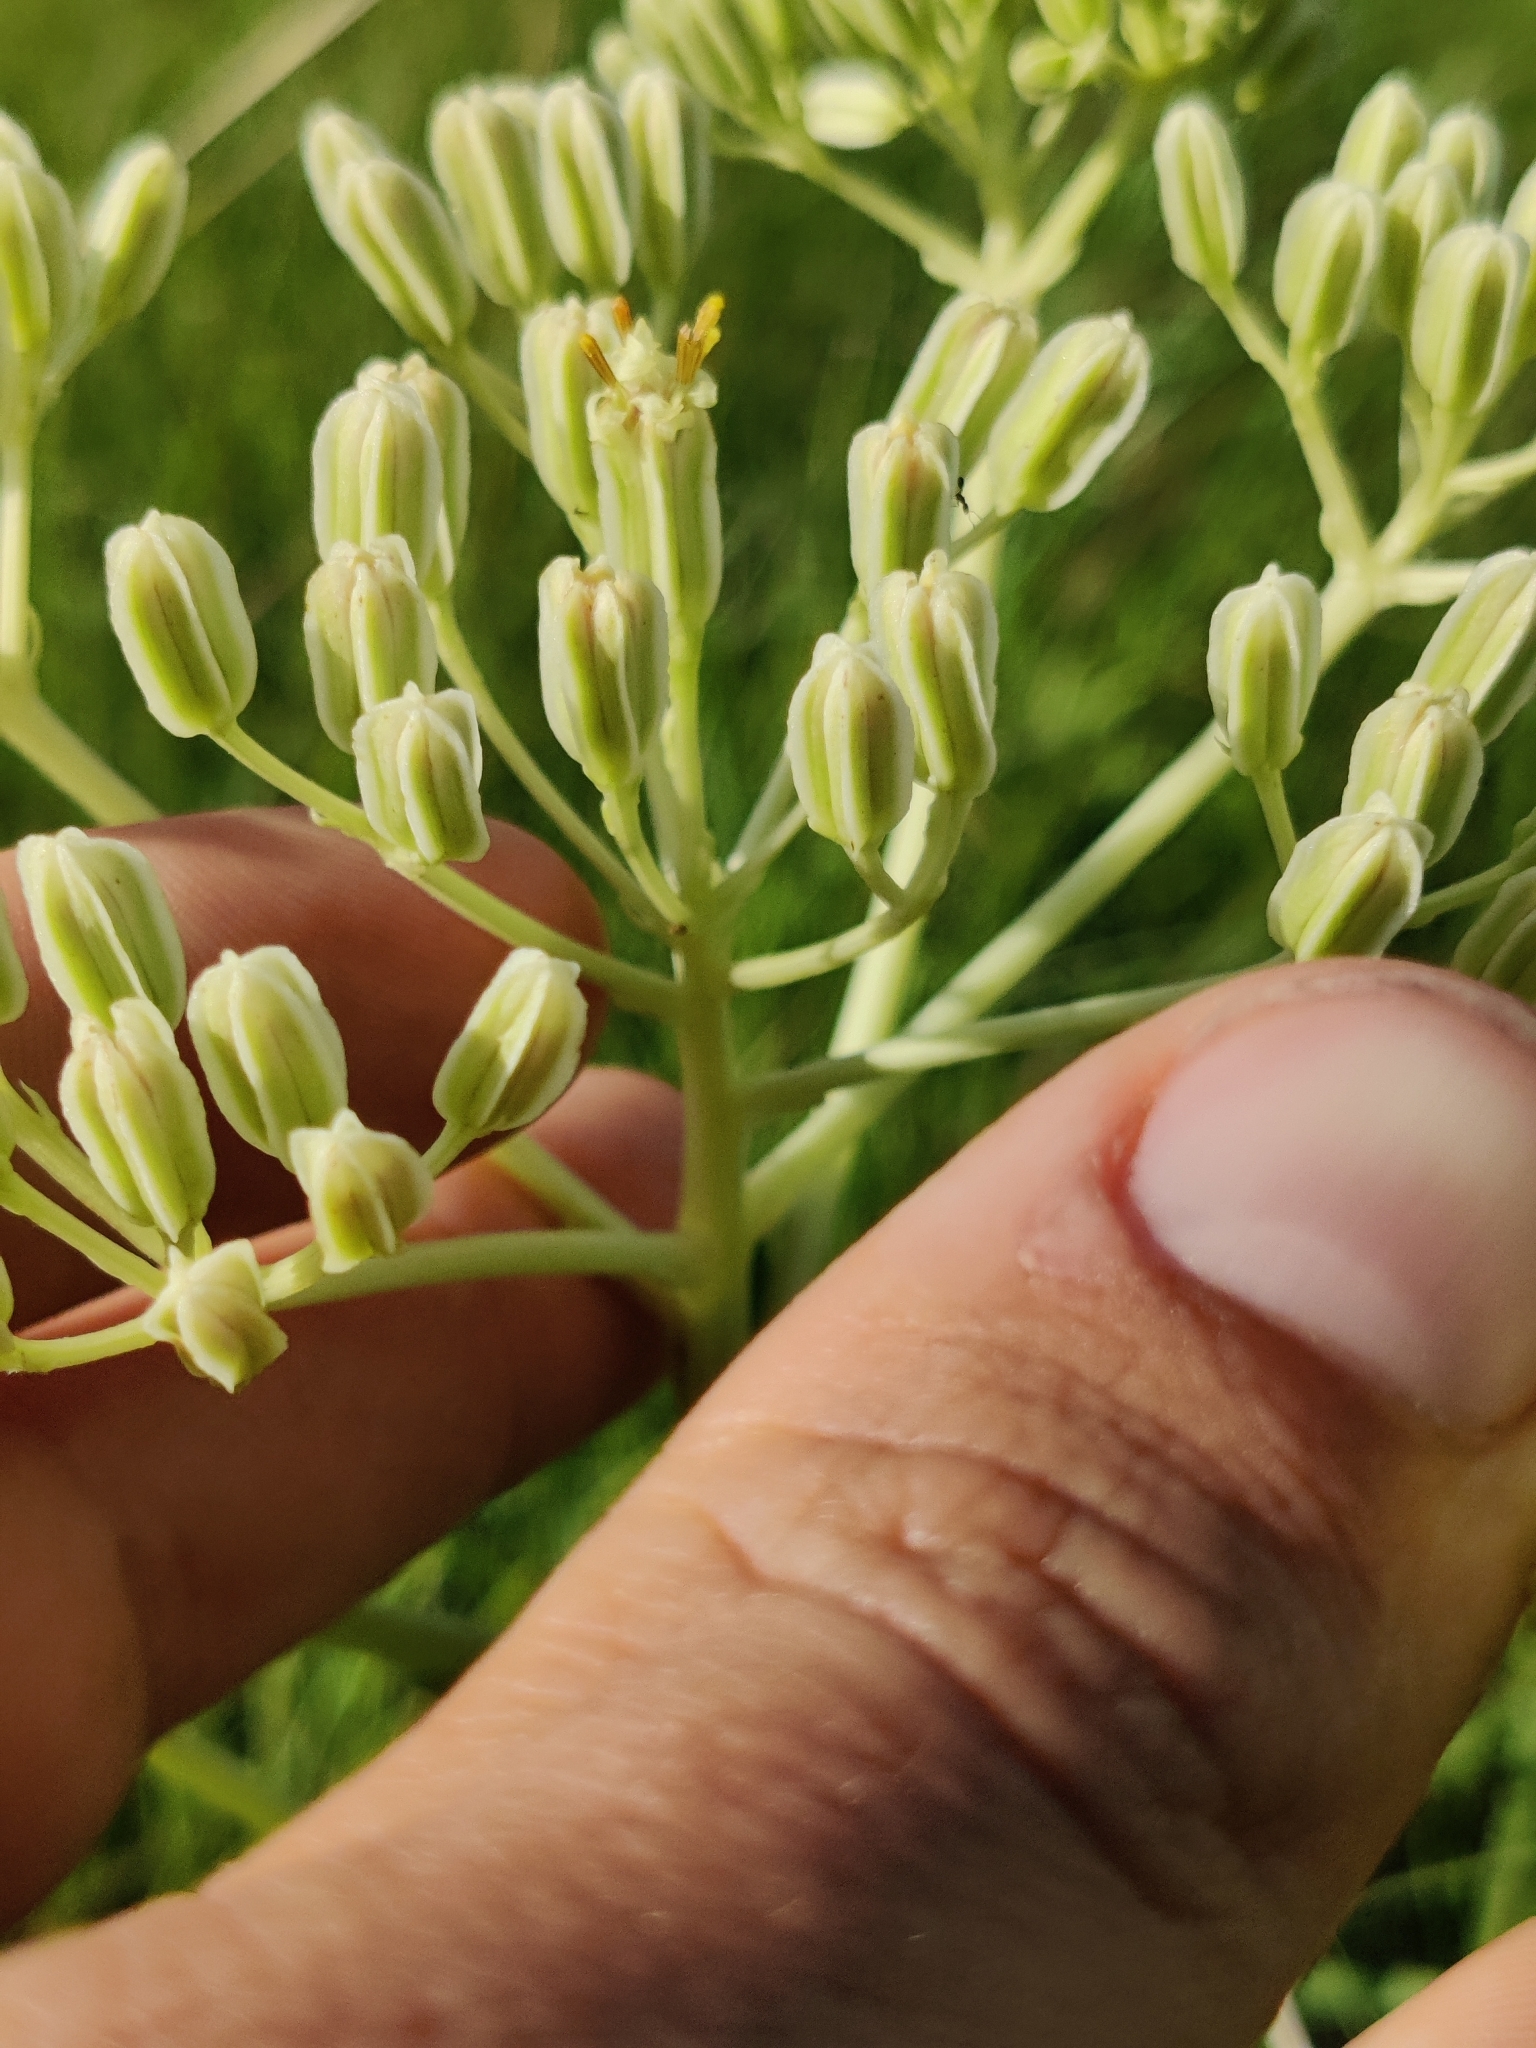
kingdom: Plantae
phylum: Tracheophyta
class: Magnoliopsida
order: Asterales
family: Asteraceae
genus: Arnoglossum
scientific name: Arnoglossum plantagineum
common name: Groove-stemmed indian-plantain
